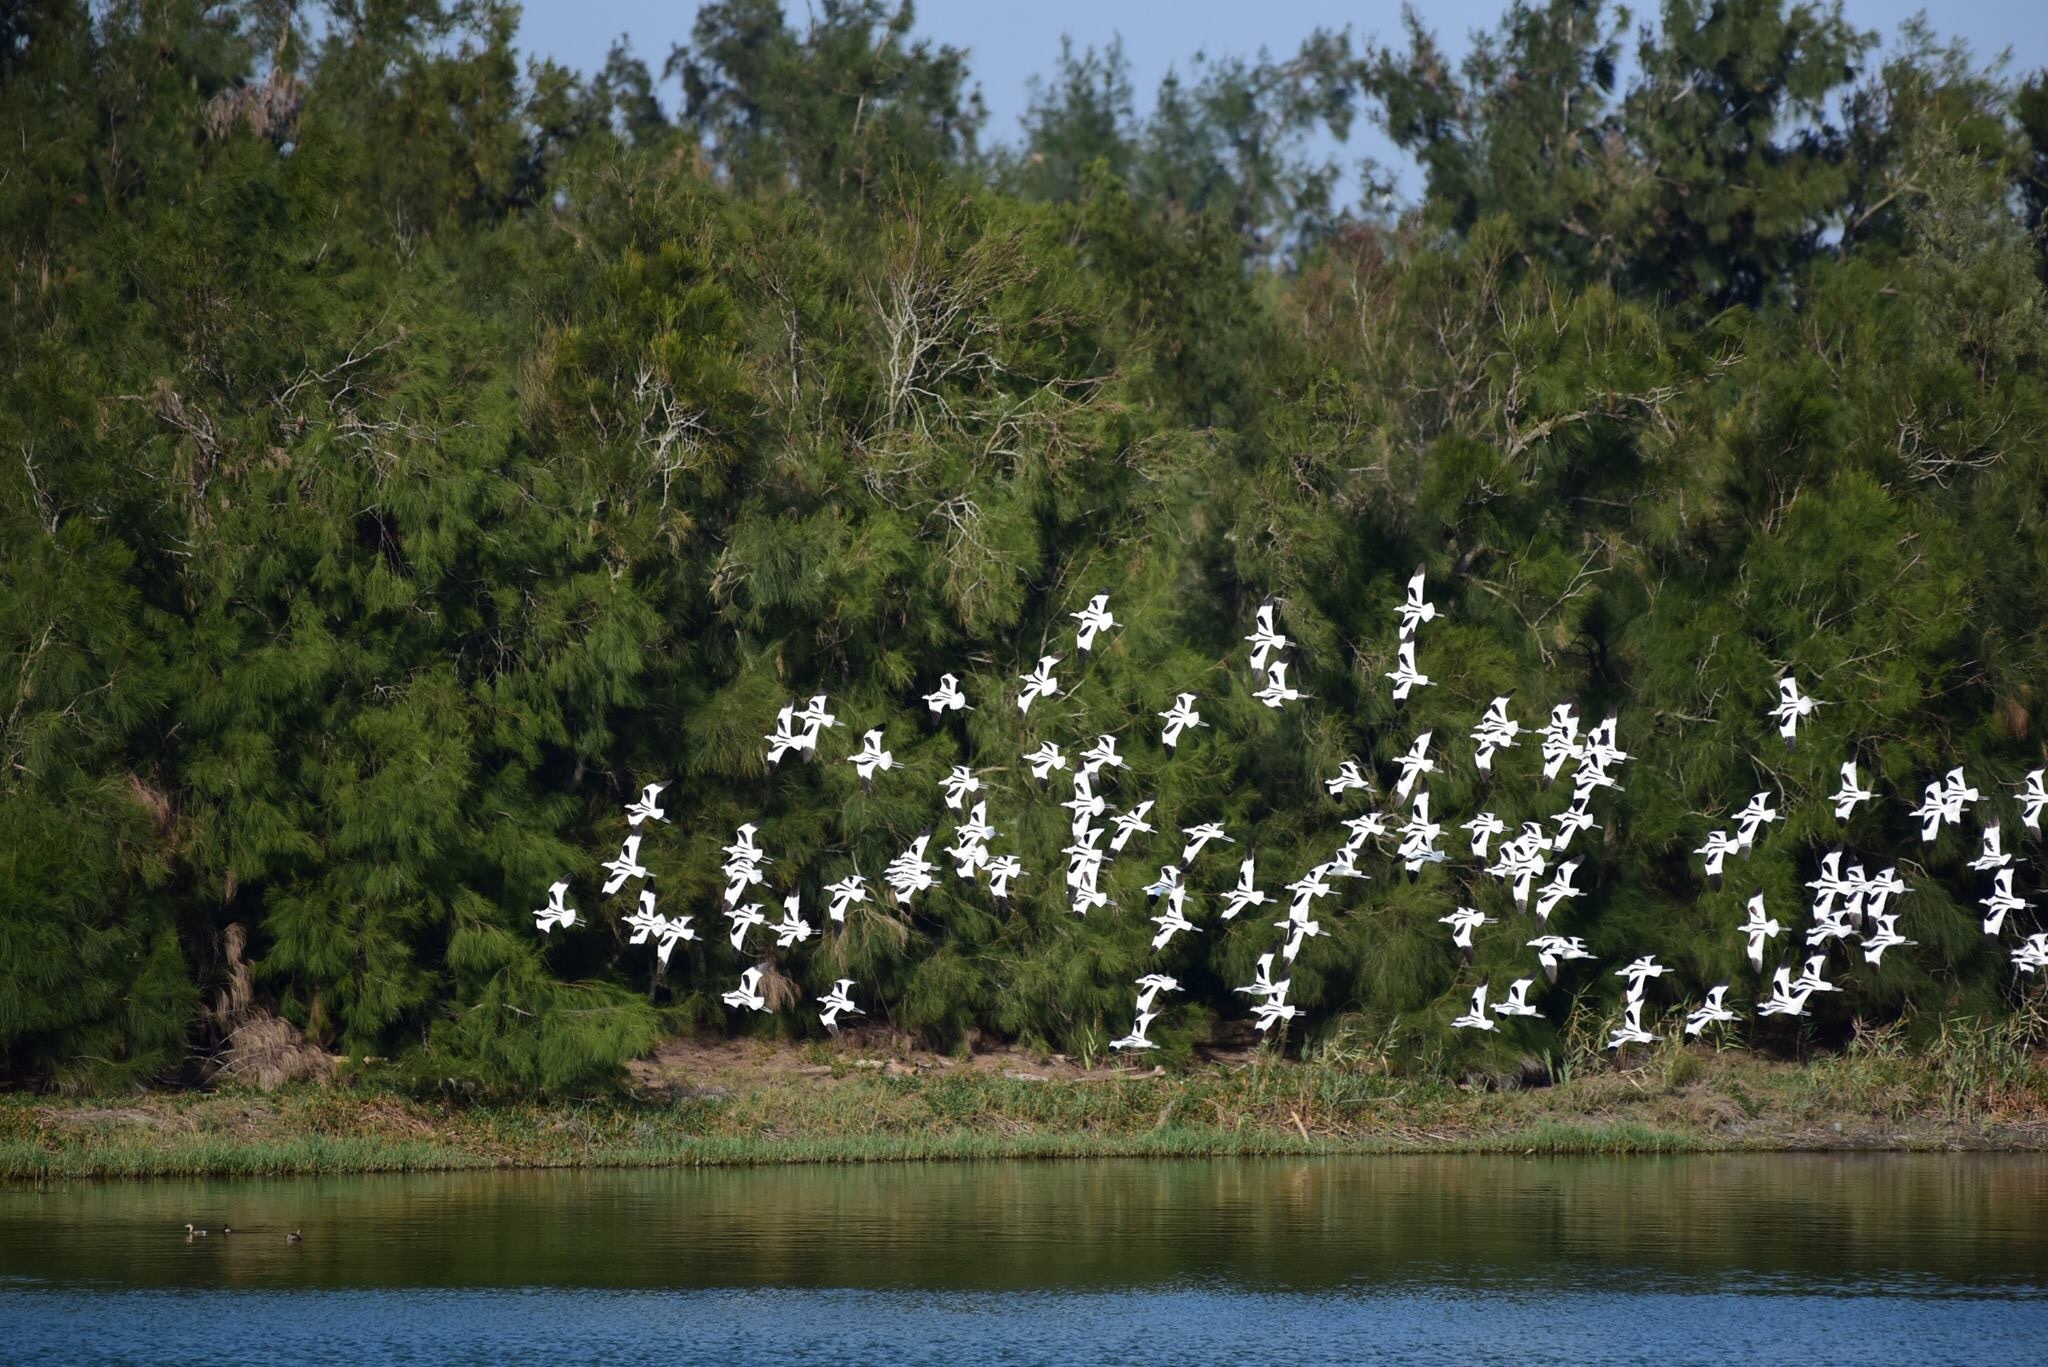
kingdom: Animalia
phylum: Chordata
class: Aves
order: Charadriiformes
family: Recurvirostridae
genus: Recurvirostra
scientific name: Recurvirostra avosetta
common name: Pied avocet
